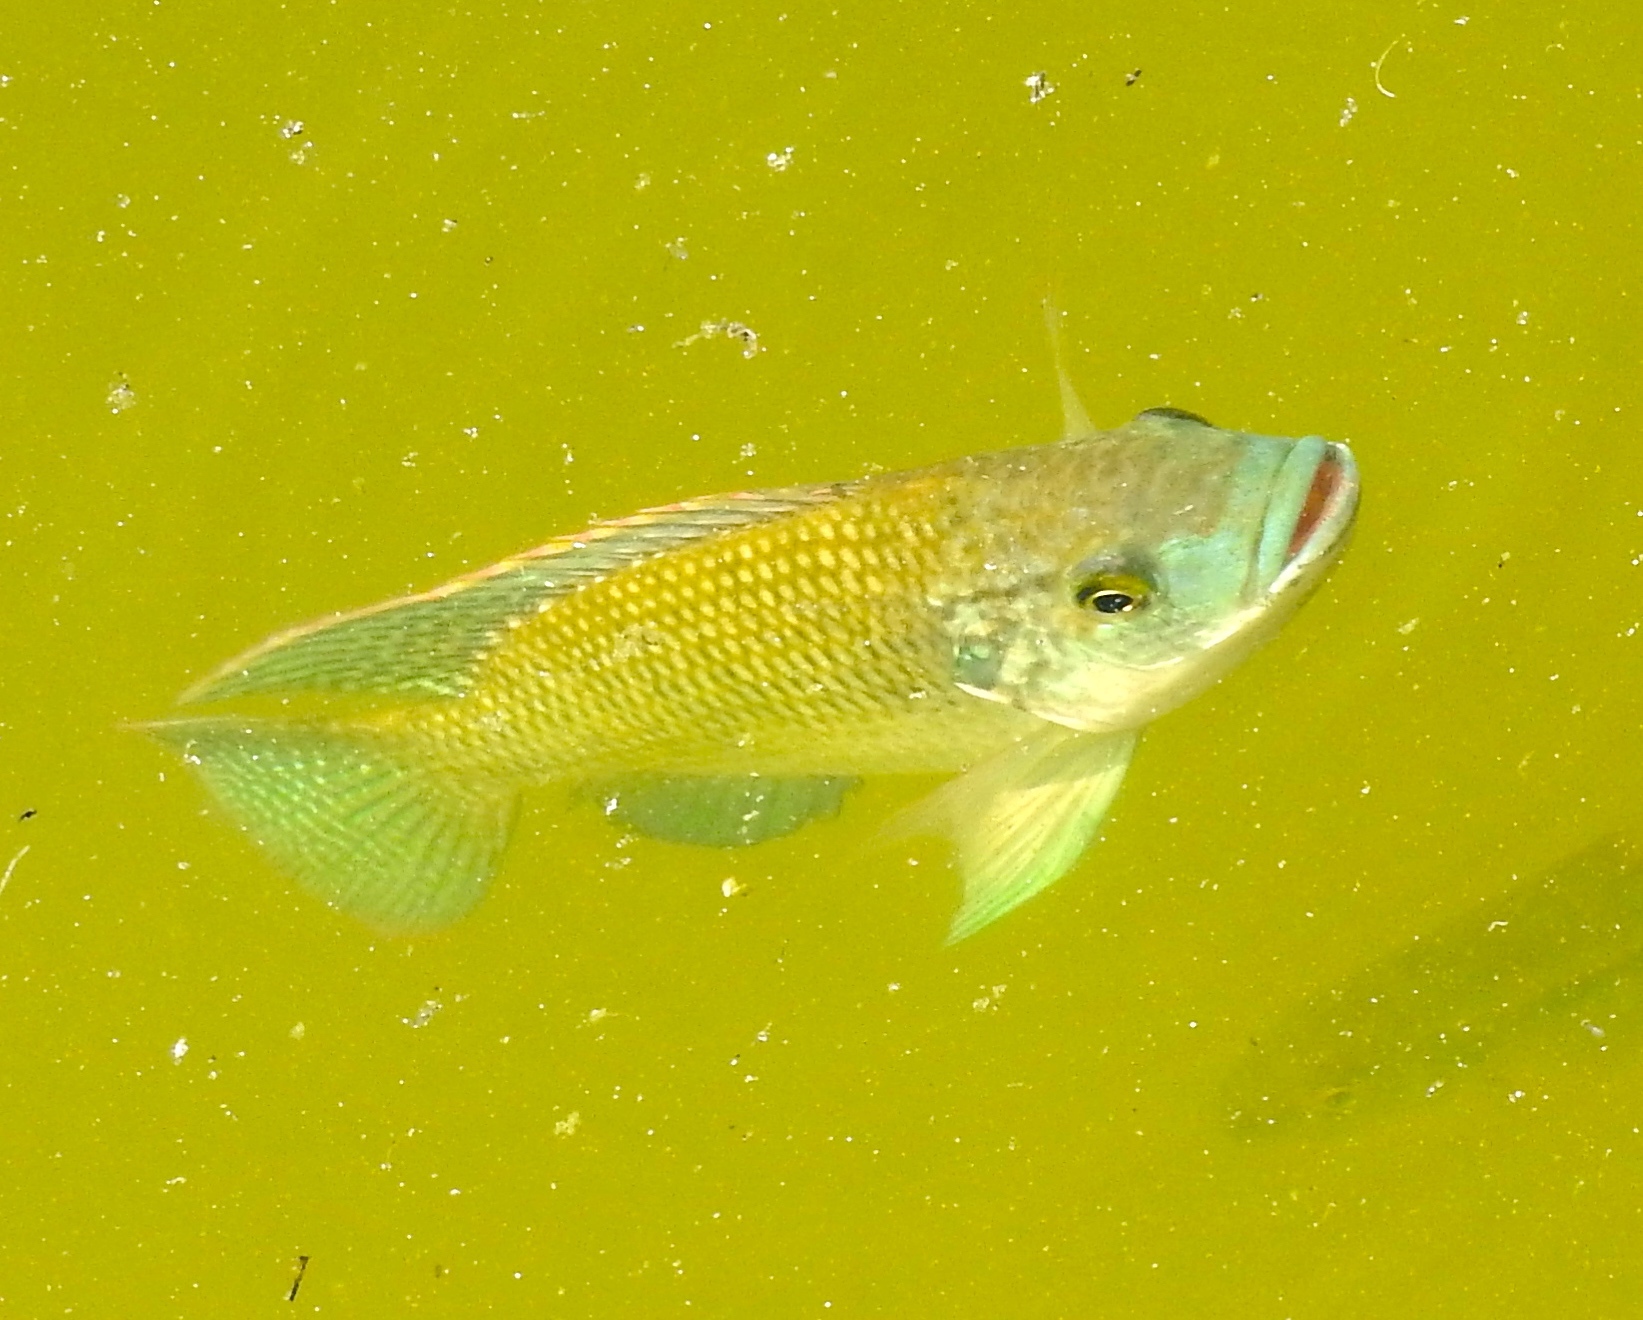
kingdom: Animalia
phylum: Chordata
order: Perciformes
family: Cichlidae
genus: Oreochromis
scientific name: Oreochromis aureus
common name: Blue tilapia
